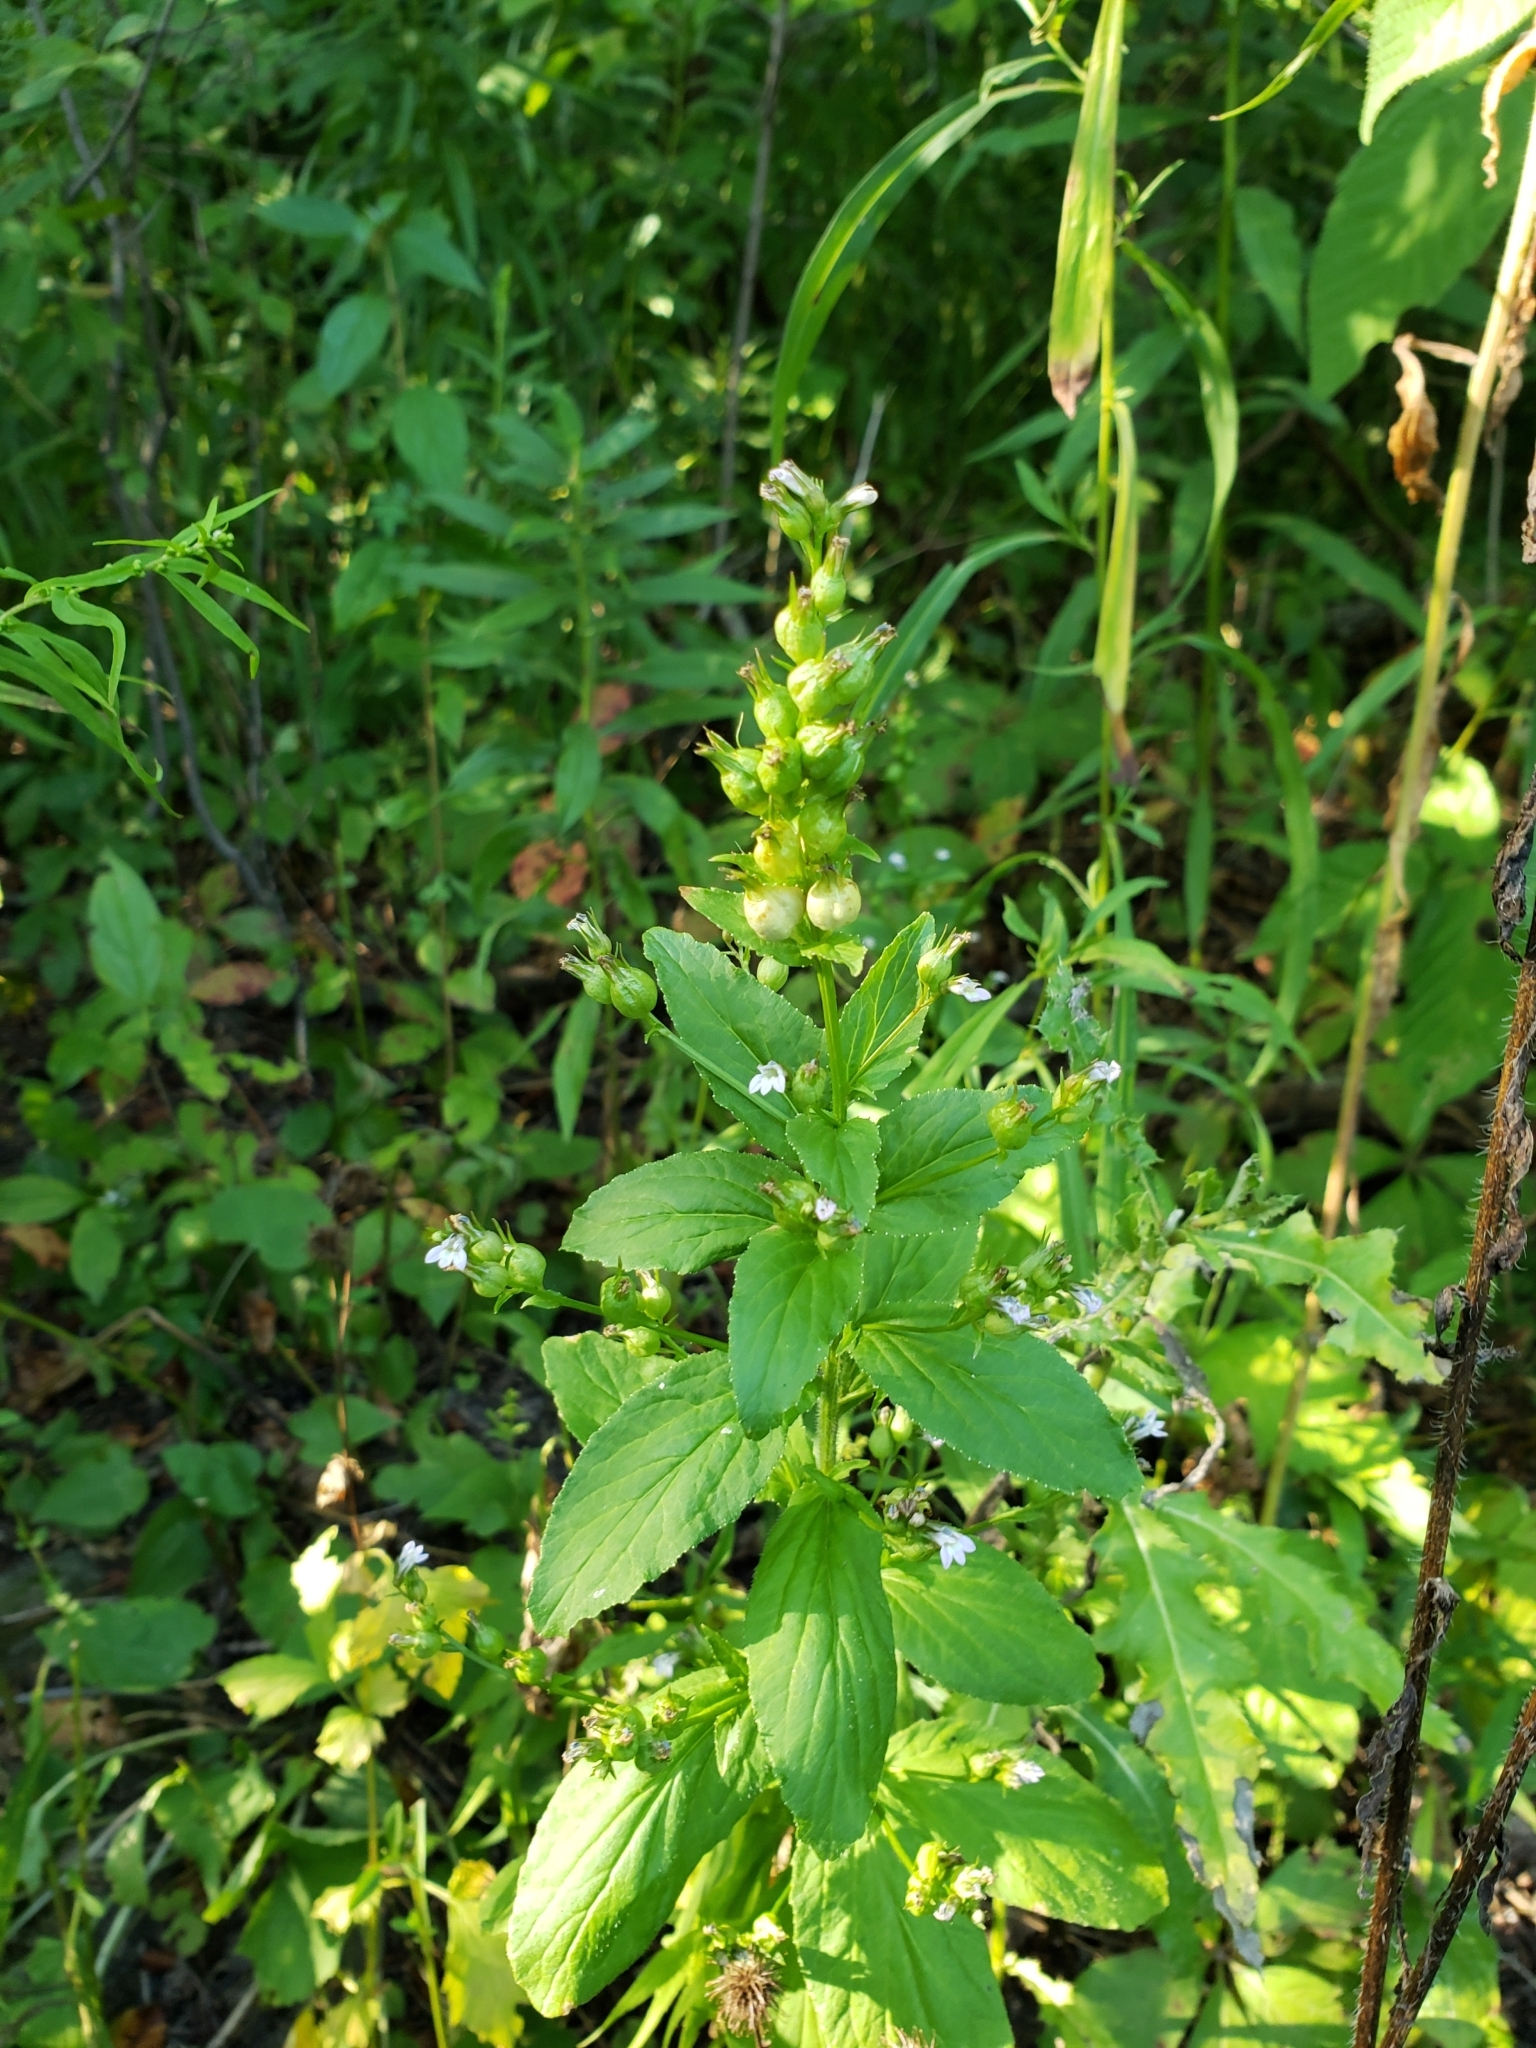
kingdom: Plantae
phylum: Tracheophyta
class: Magnoliopsida
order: Asterales
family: Campanulaceae
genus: Lobelia
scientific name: Lobelia inflata
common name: Indian tobacco
